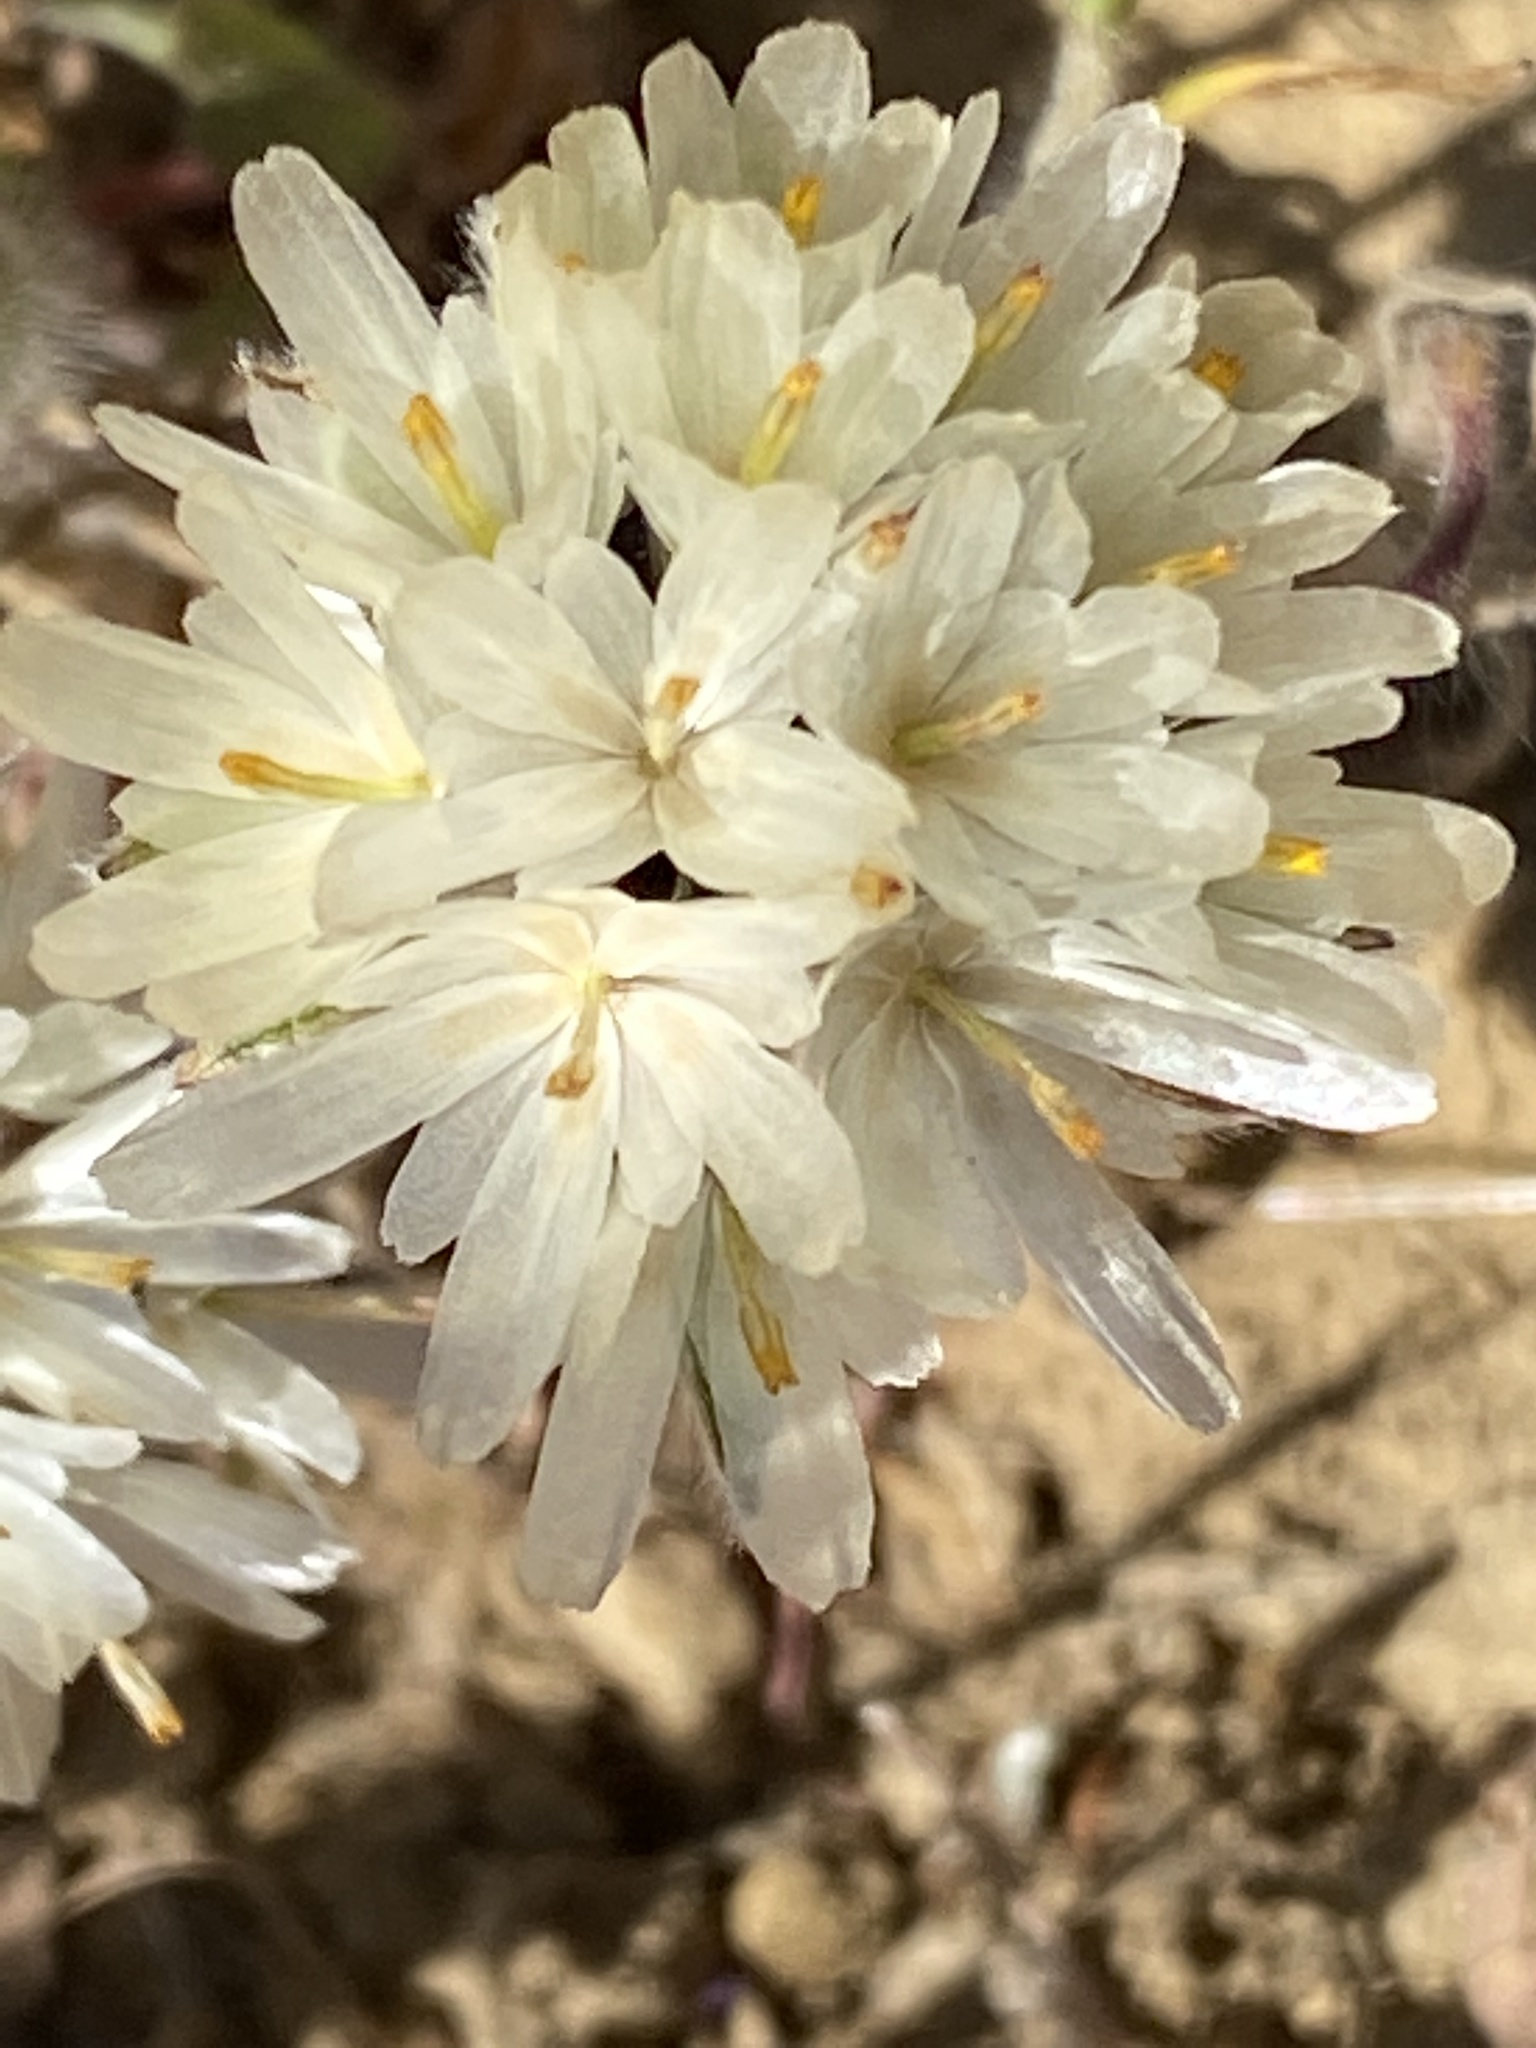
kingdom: Plantae
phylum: Tracheophyta
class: Magnoliopsida
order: Asterales
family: Asteraceae
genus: Achyrachaena
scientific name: Achyrachaena mollis
